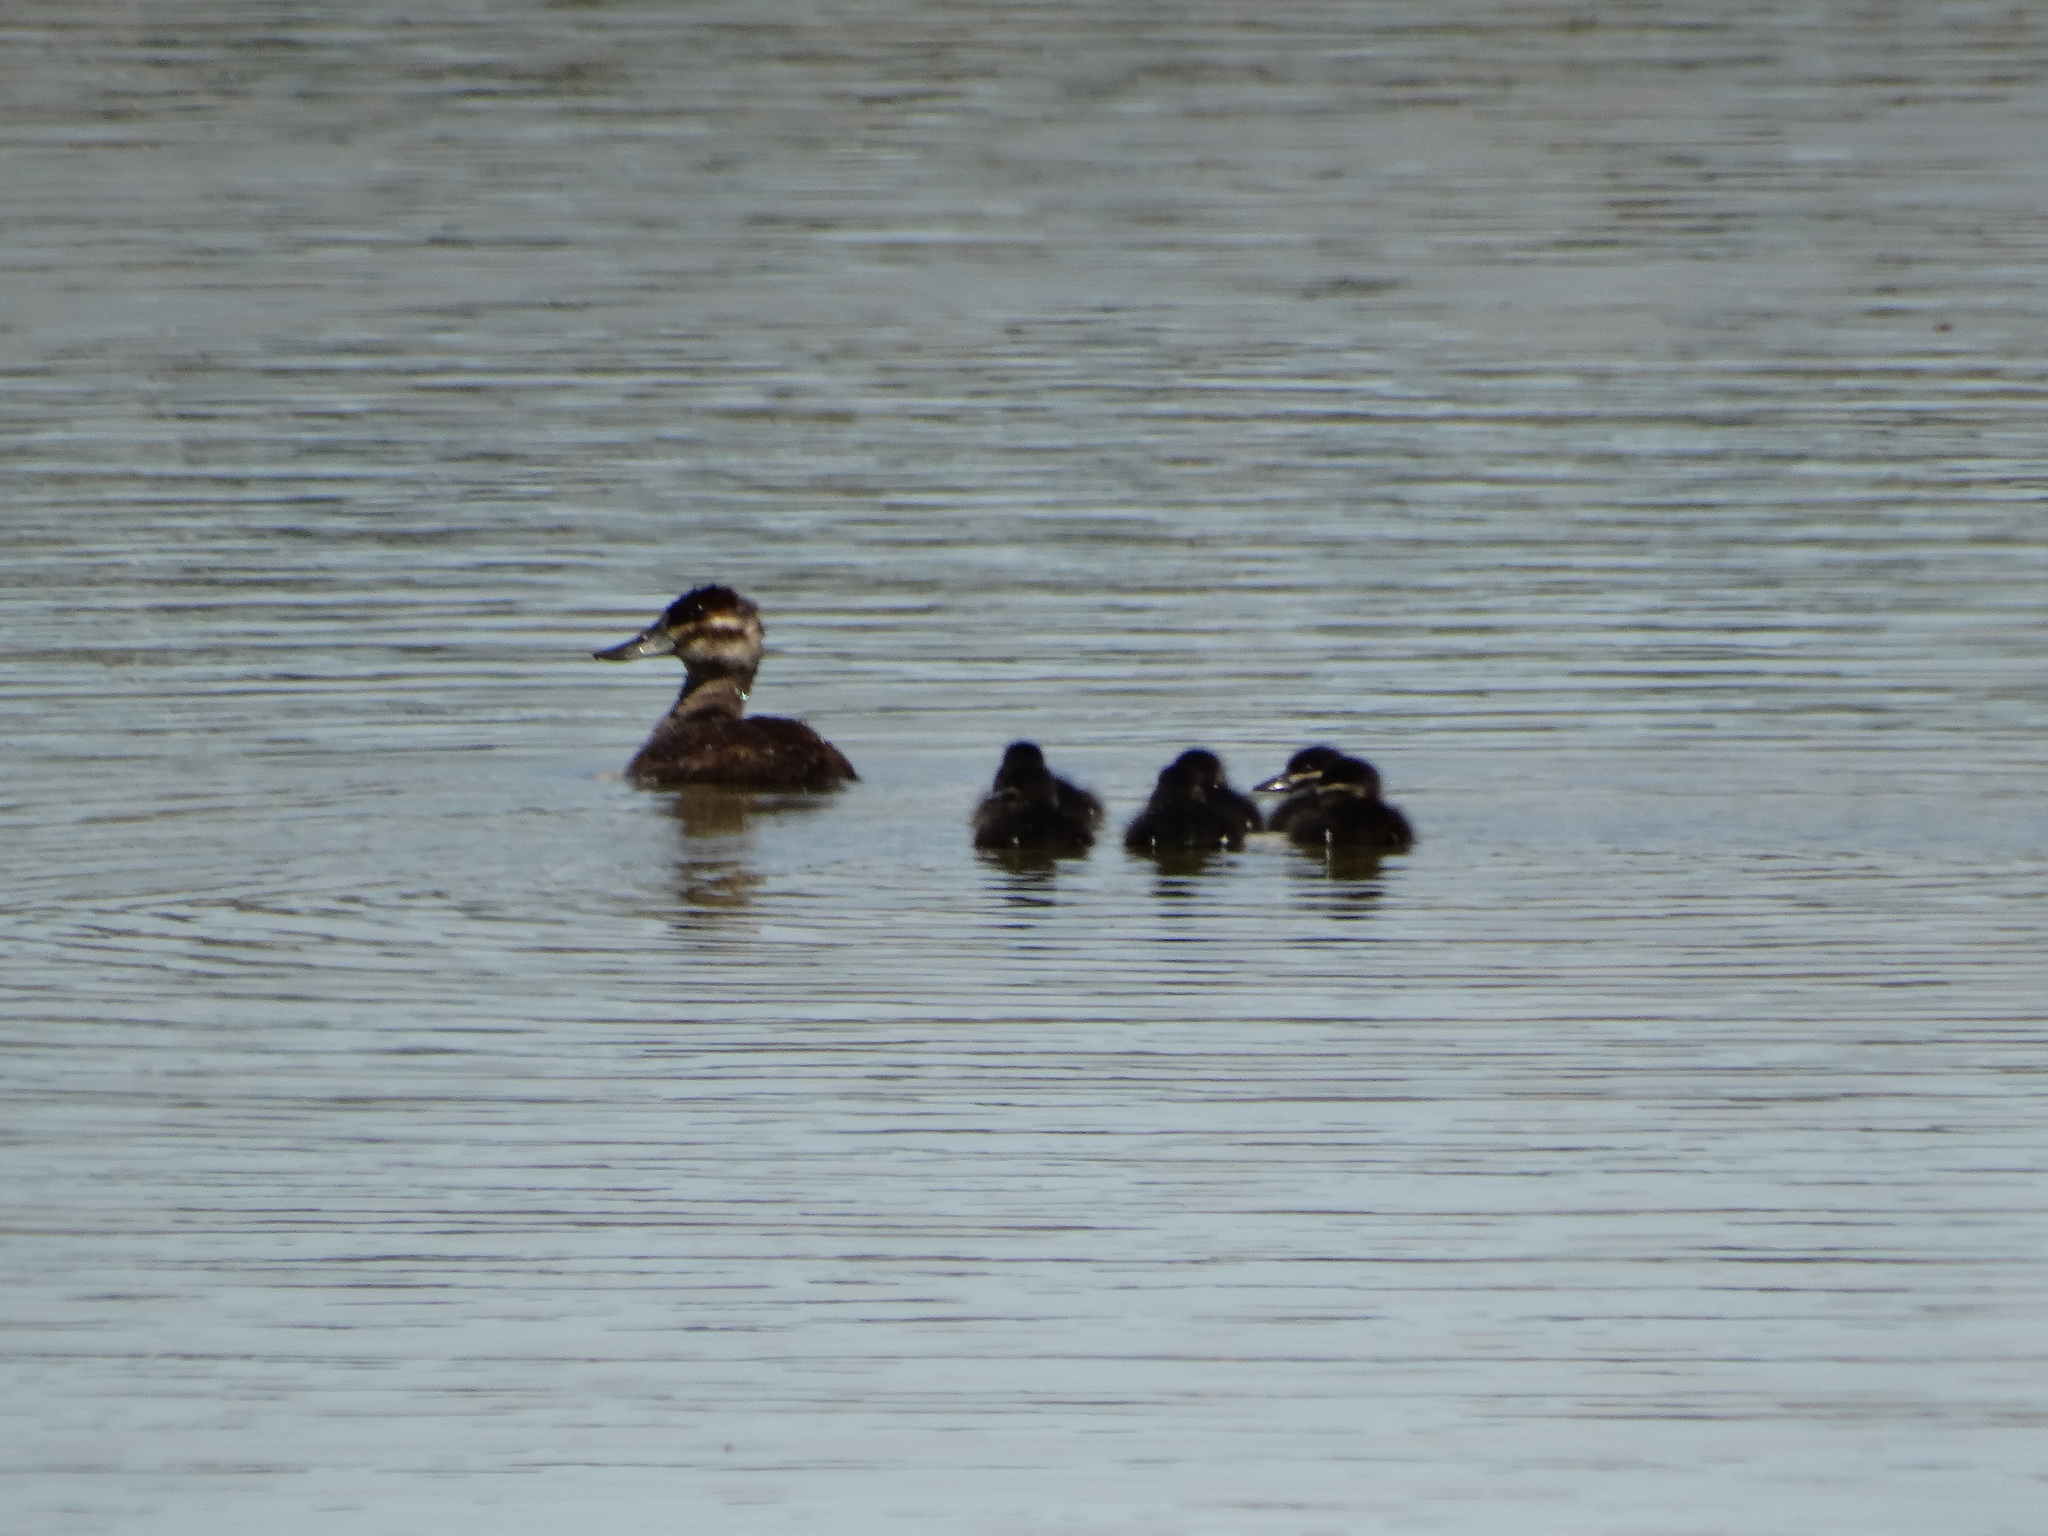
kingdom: Animalia
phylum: Chordata
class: Aves
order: Anseriformes
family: Anatidae
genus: Oxyura
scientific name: Oxyura jamaicensis
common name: Ruddy duck
